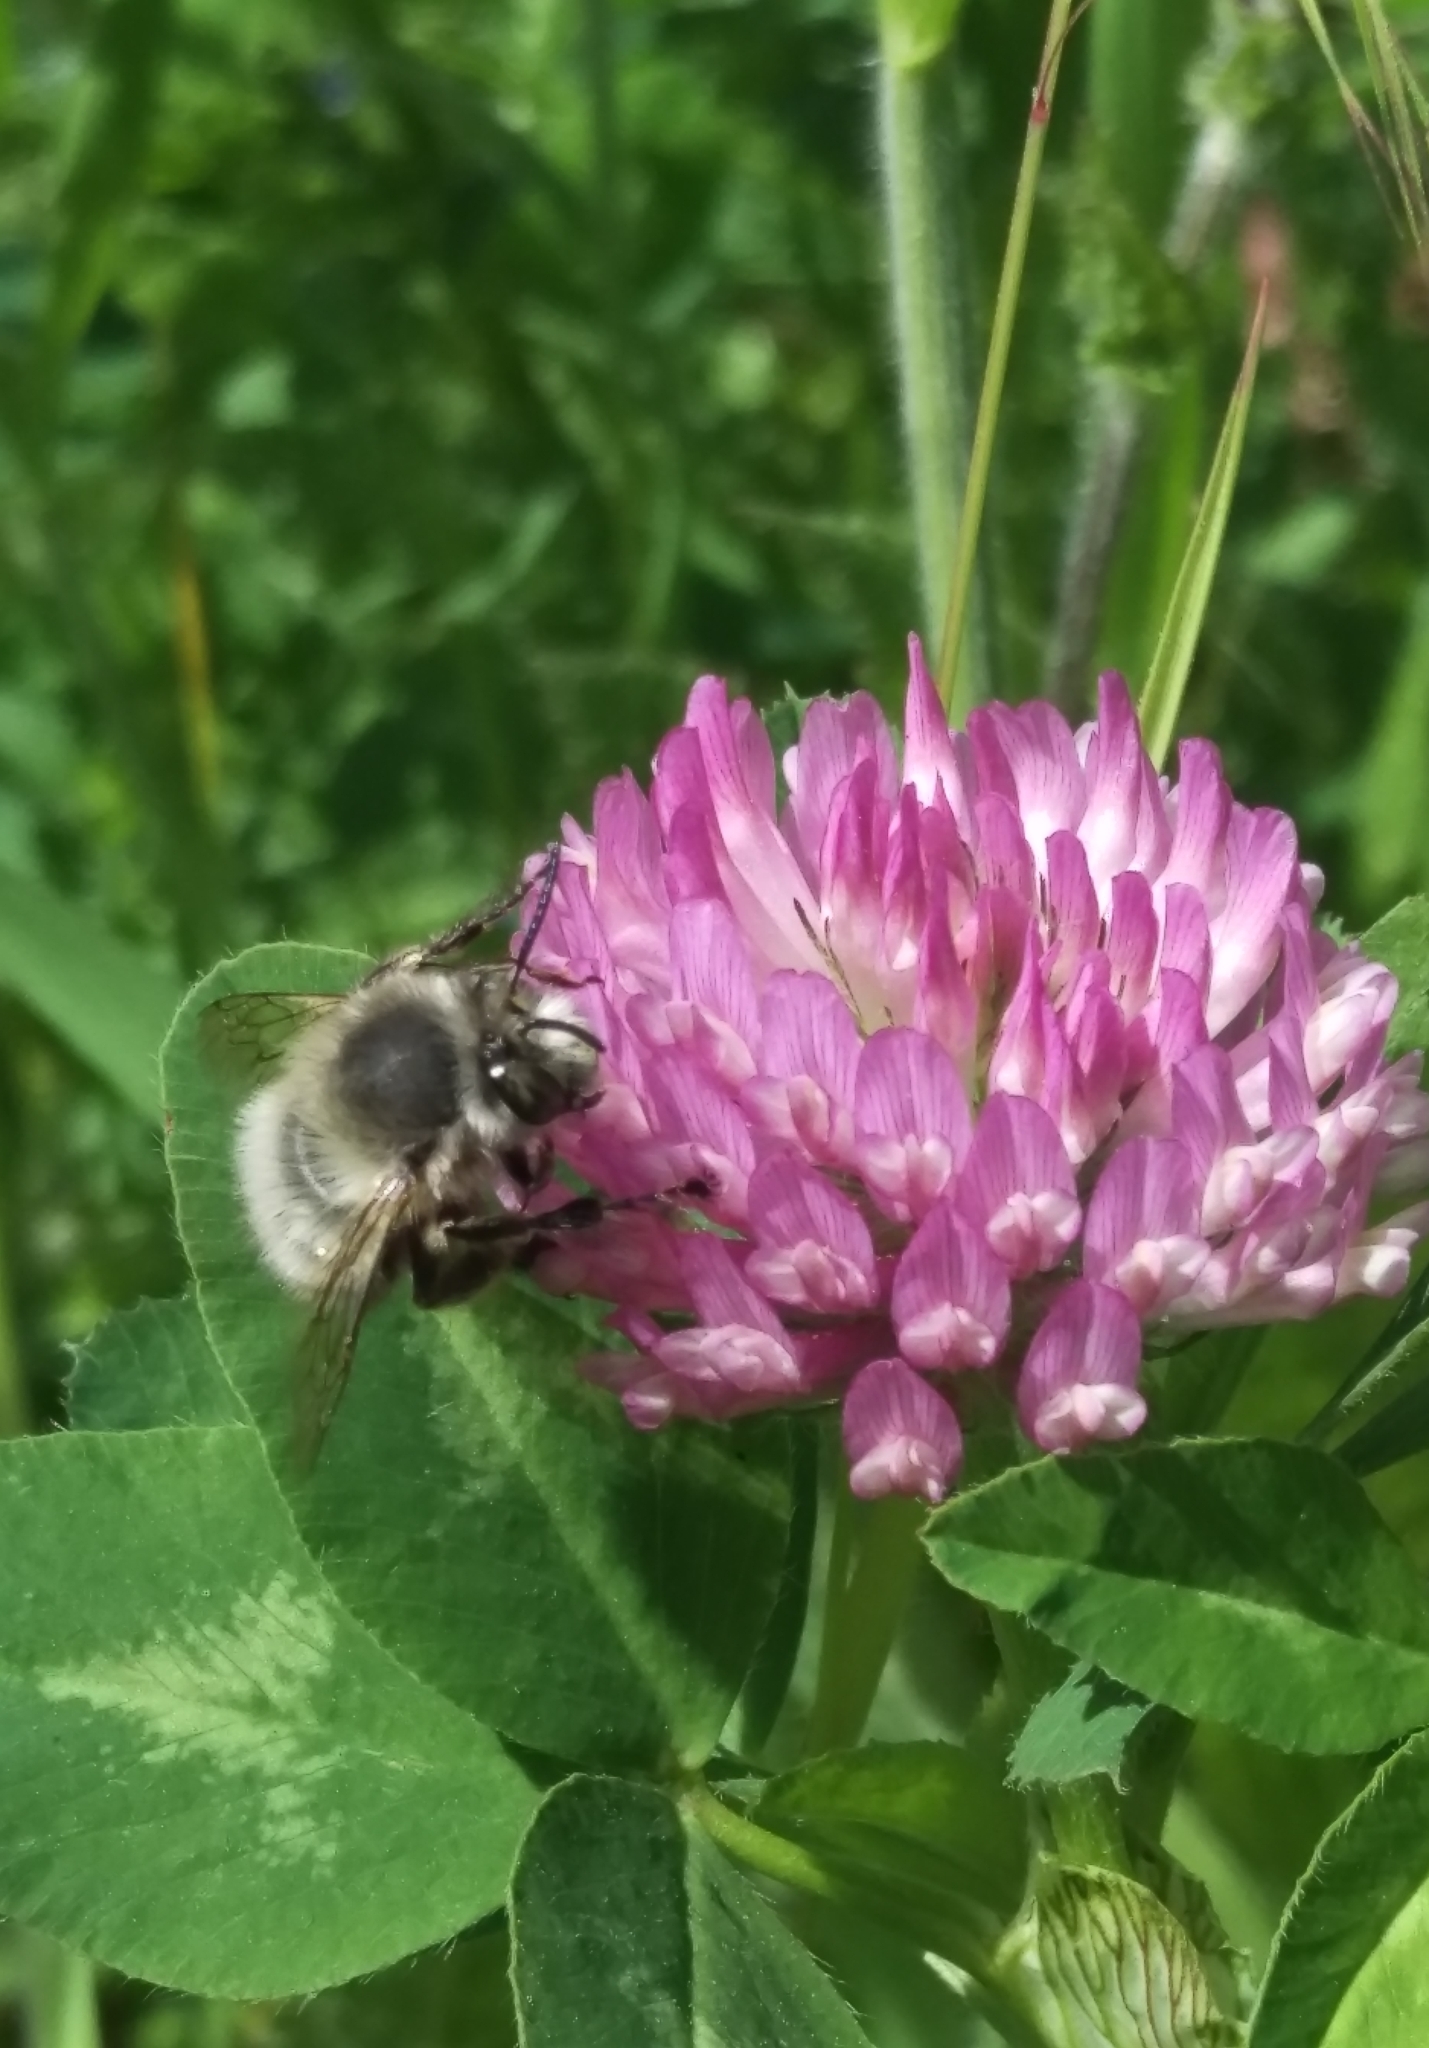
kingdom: Animalia
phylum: Arthropoda
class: Insecta
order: Hymenoptera
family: Apidae
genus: Anthophora
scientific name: Anthophora plumipes
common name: Hairy-footed flower bee
